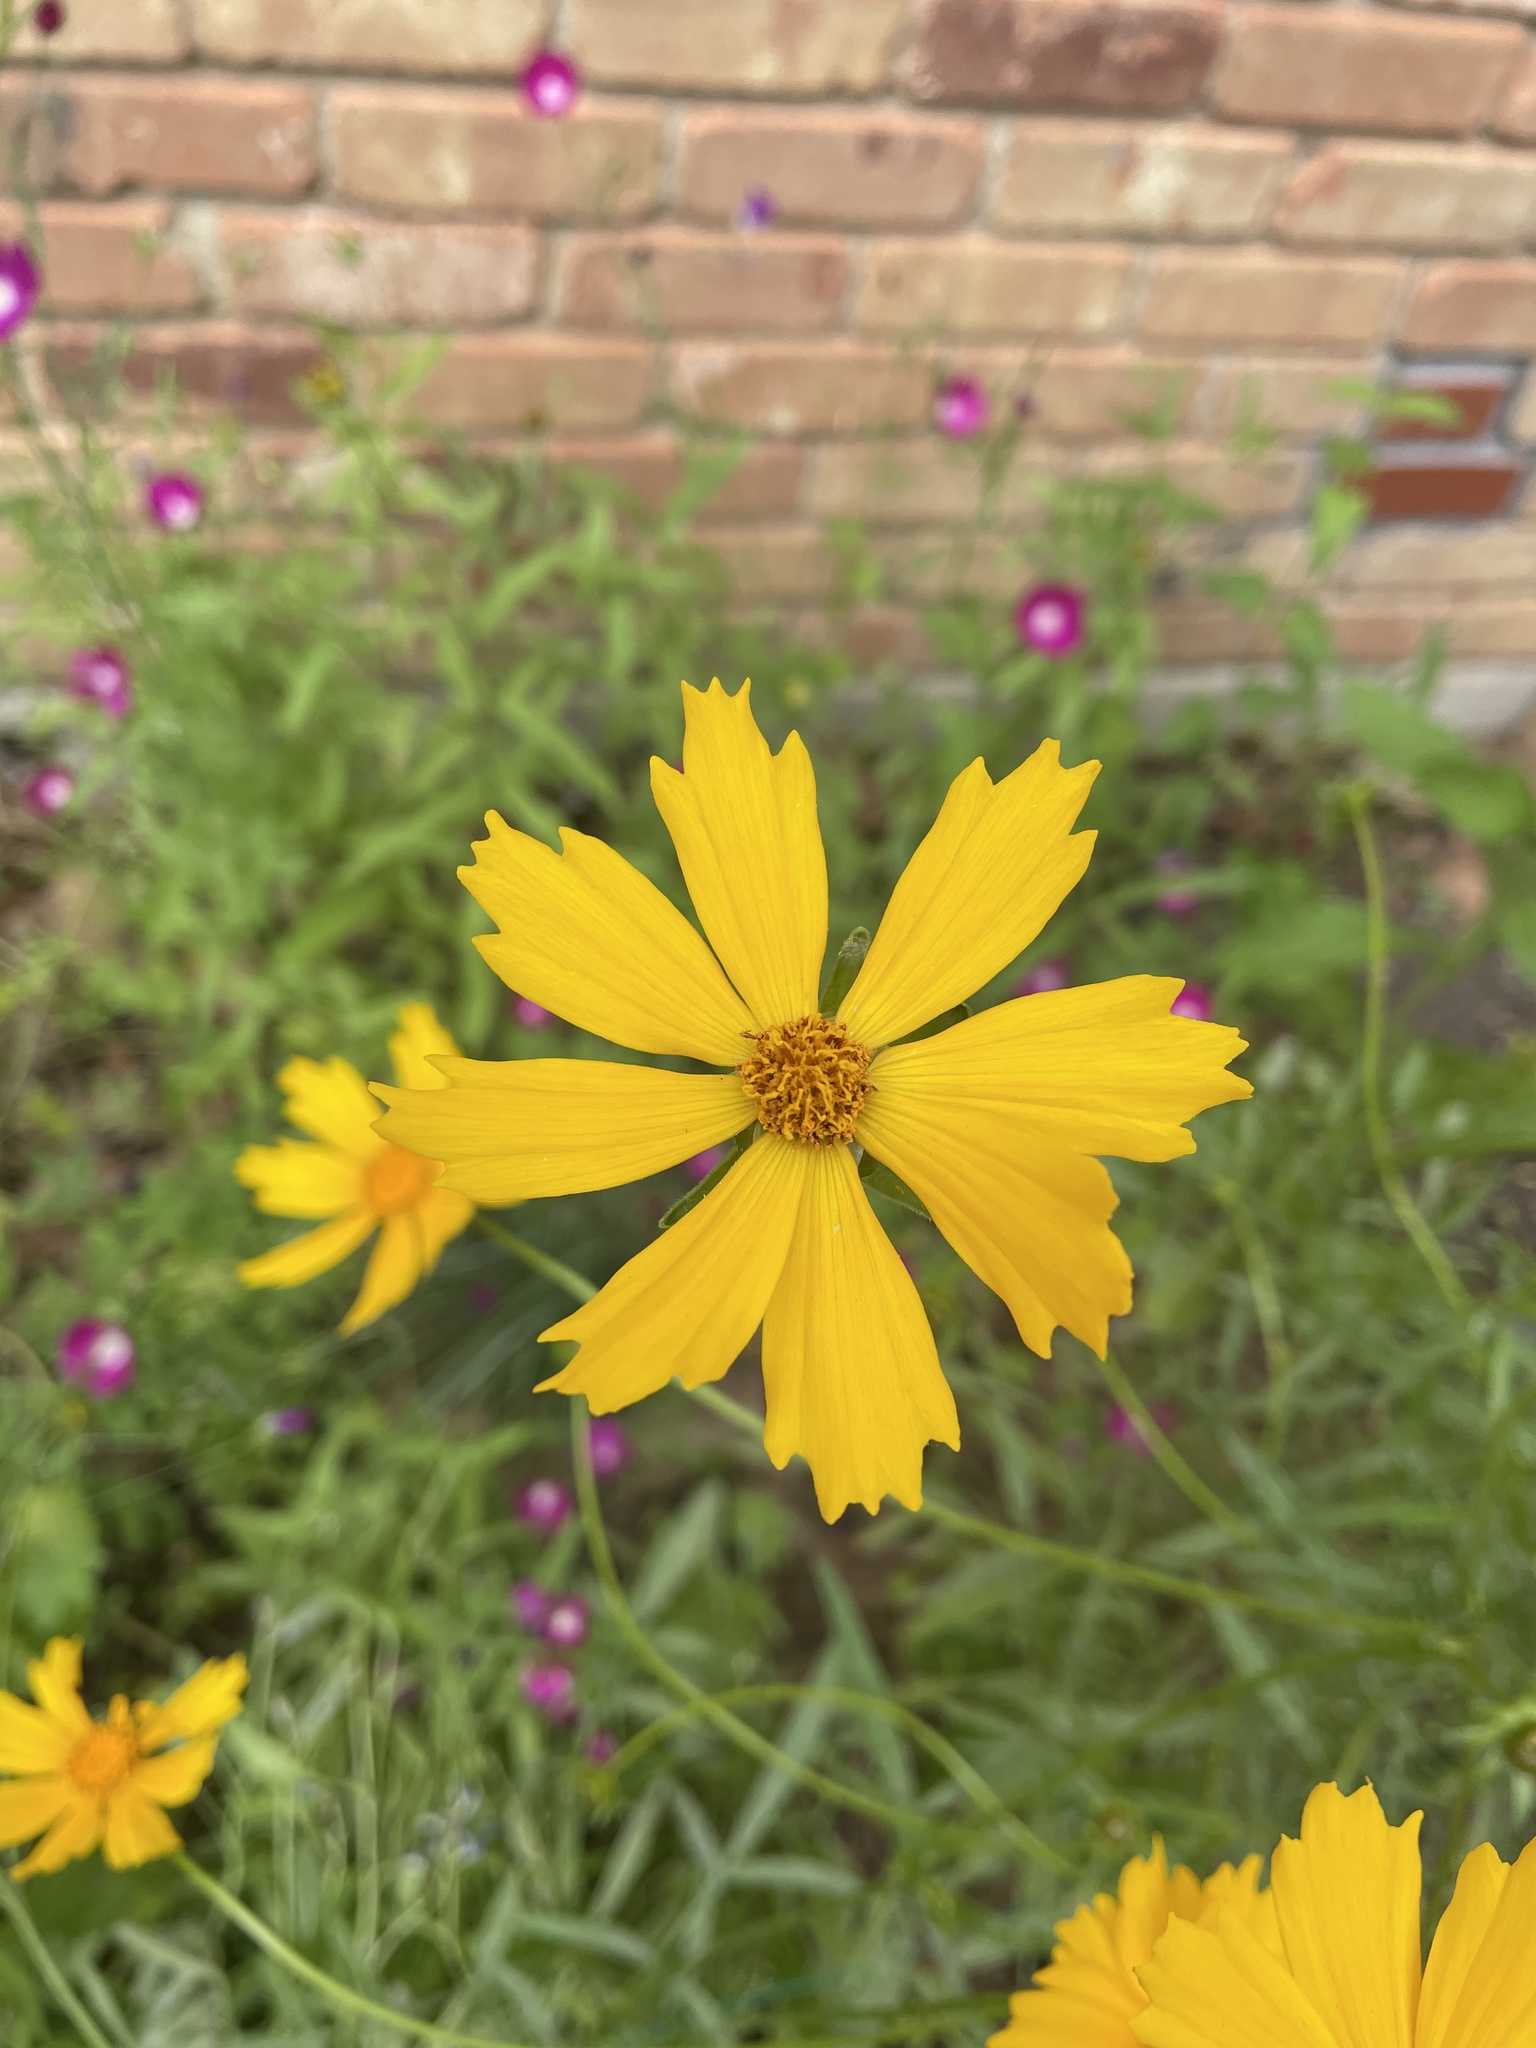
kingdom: Plantae
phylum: Tracheophyta
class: Magnoliopsida
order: Asterales
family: Asteraceae
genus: Coreopsis
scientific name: Coreopsis lanceolata
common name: Garden coreopsis
